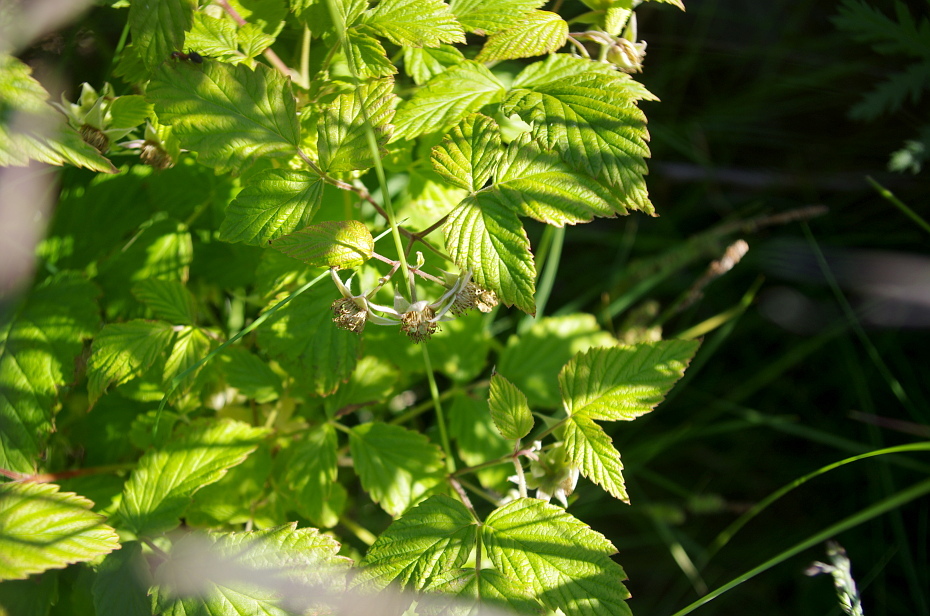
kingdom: Plantae
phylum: Tracheophyta
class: Magnoliopsida
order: Rosales
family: Rosaceae
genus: Rubus
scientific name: Rubus idaeus
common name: Raspberry
